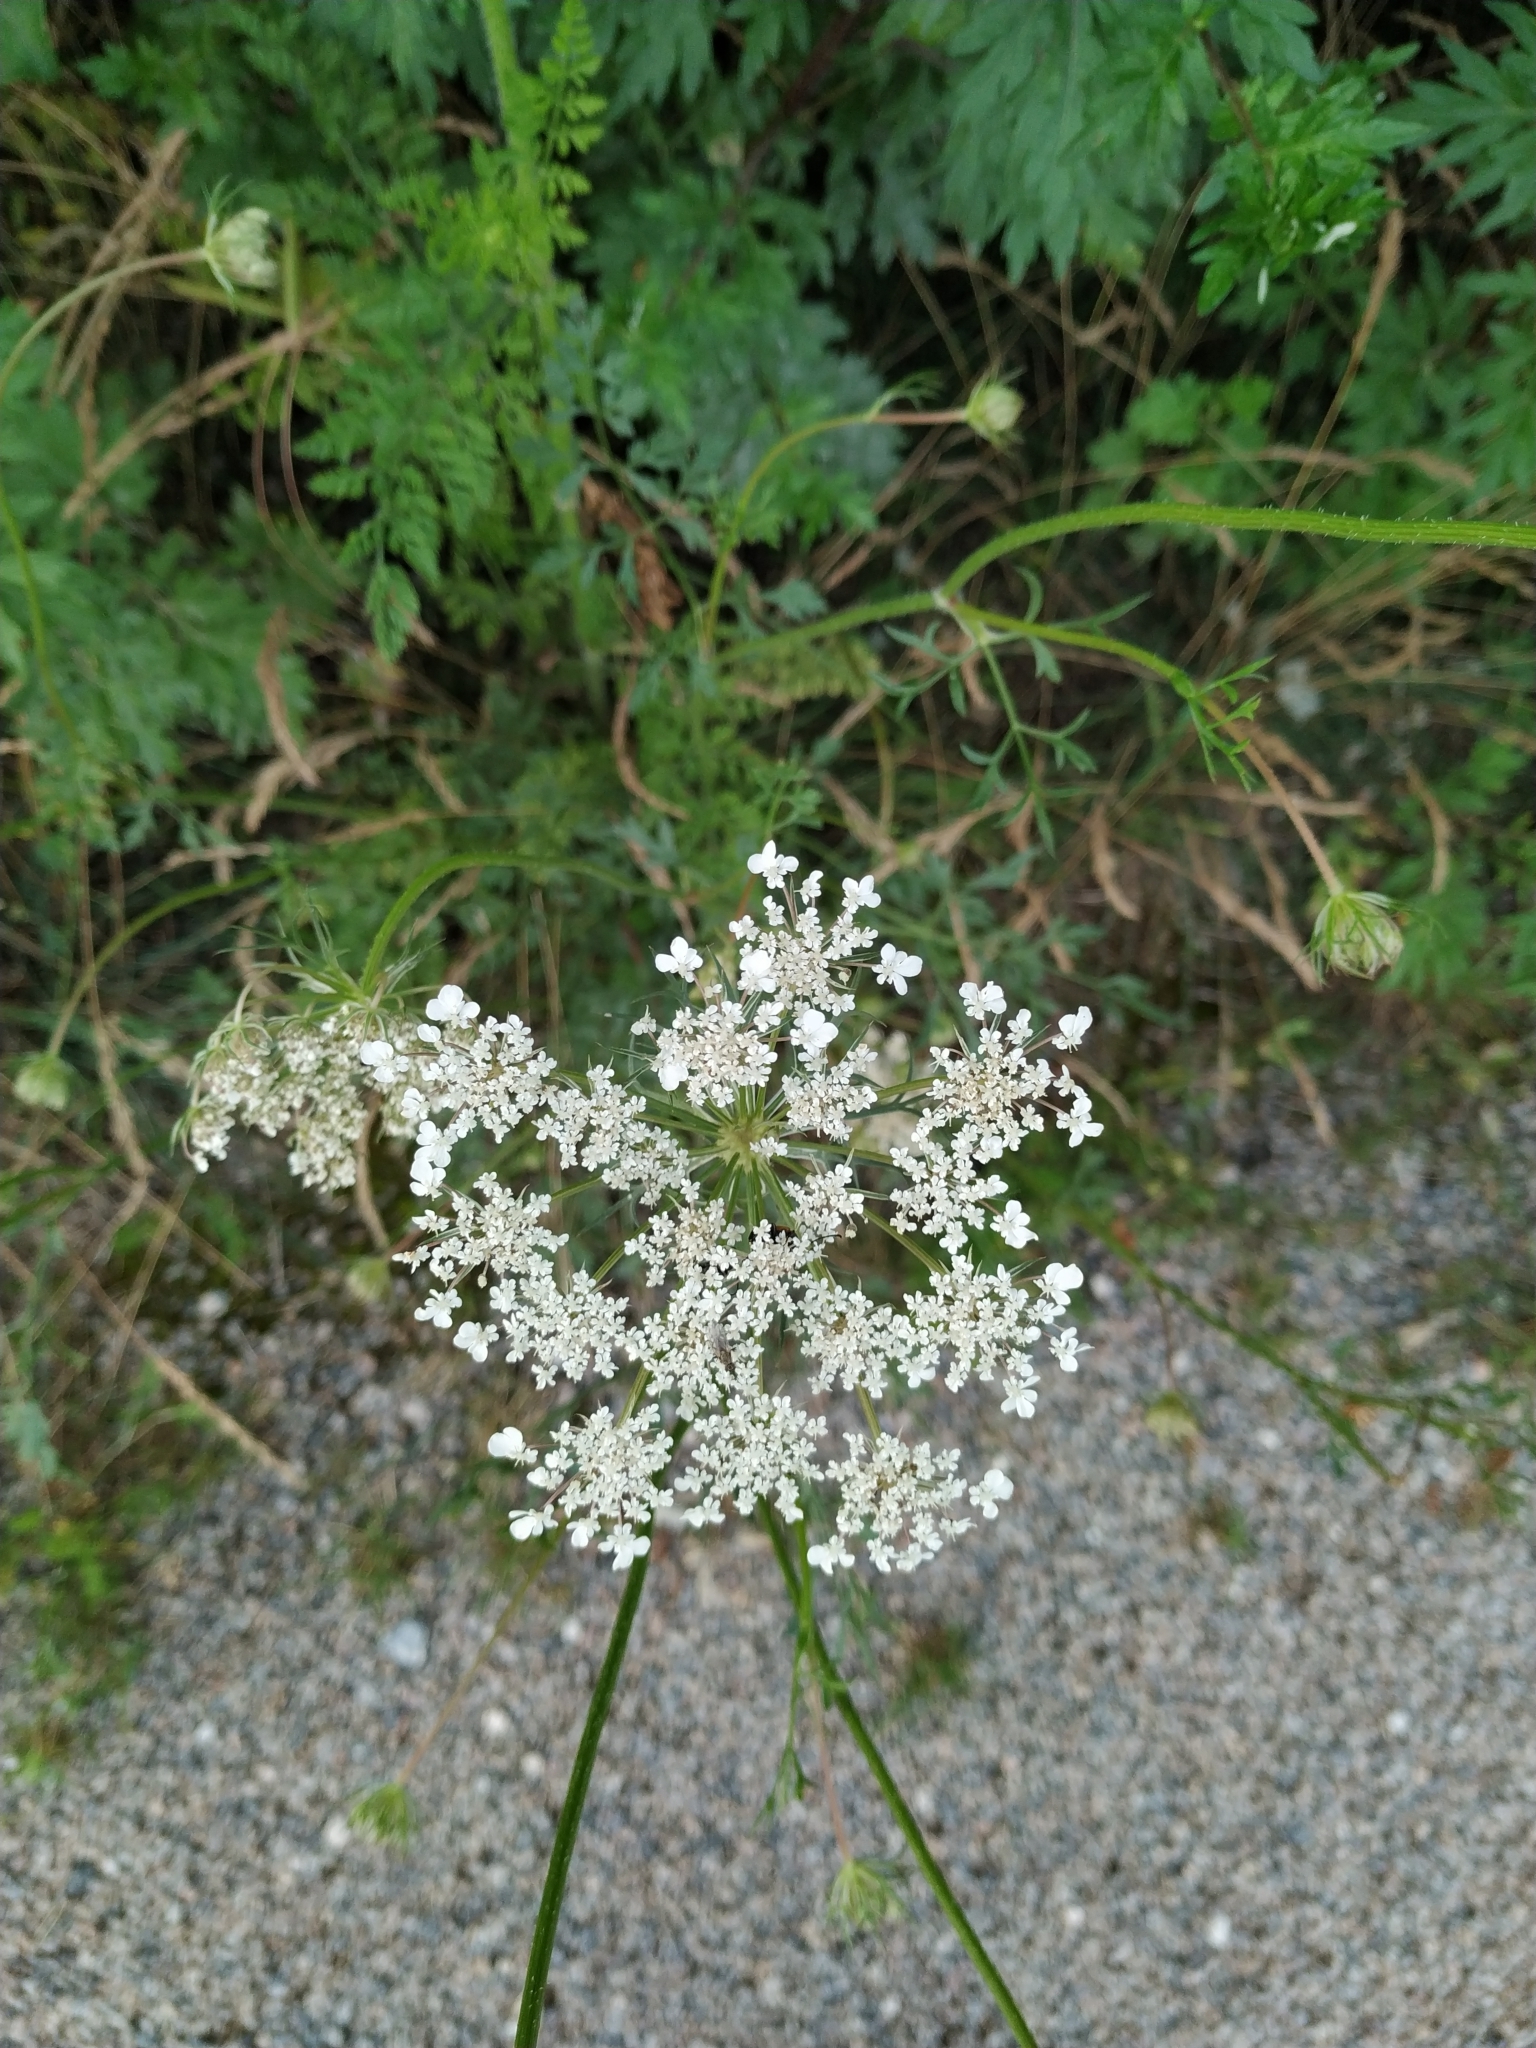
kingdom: Plantae
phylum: Tracheophyta
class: Magnoliopsida
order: Apiales
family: Apiaceae
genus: Daucus
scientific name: Daucus carota
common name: Wild carrot
